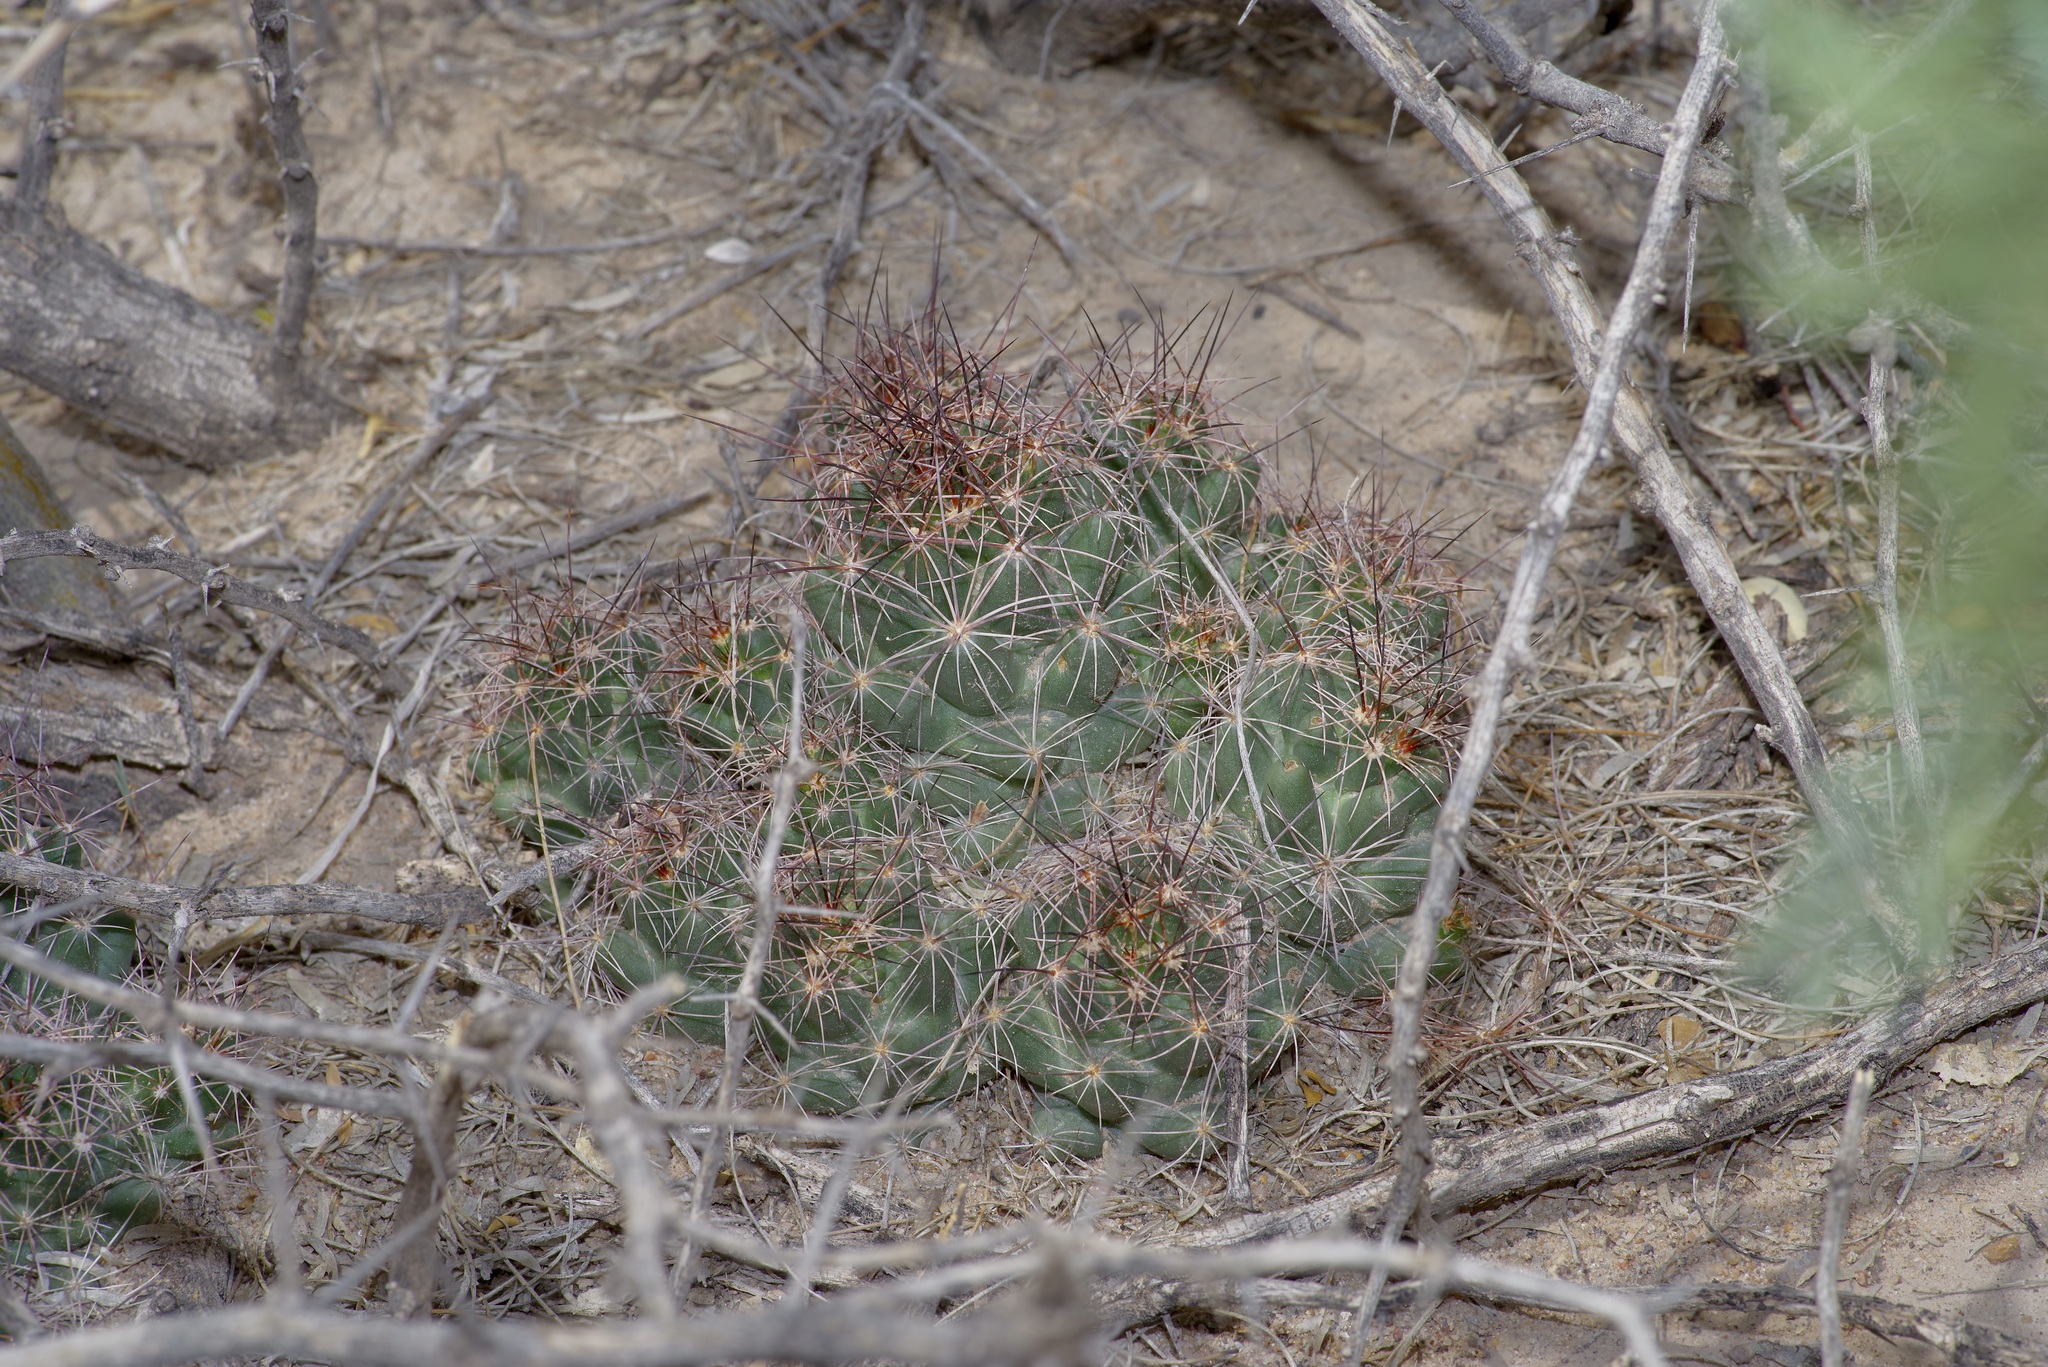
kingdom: Plantae
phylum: Tracheophyta
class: Magnoliopsida
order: Caryophyllales
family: Cactaceae
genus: Coryphantha
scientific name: Coryphantha macromeris
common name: Nipple beehive cactus
